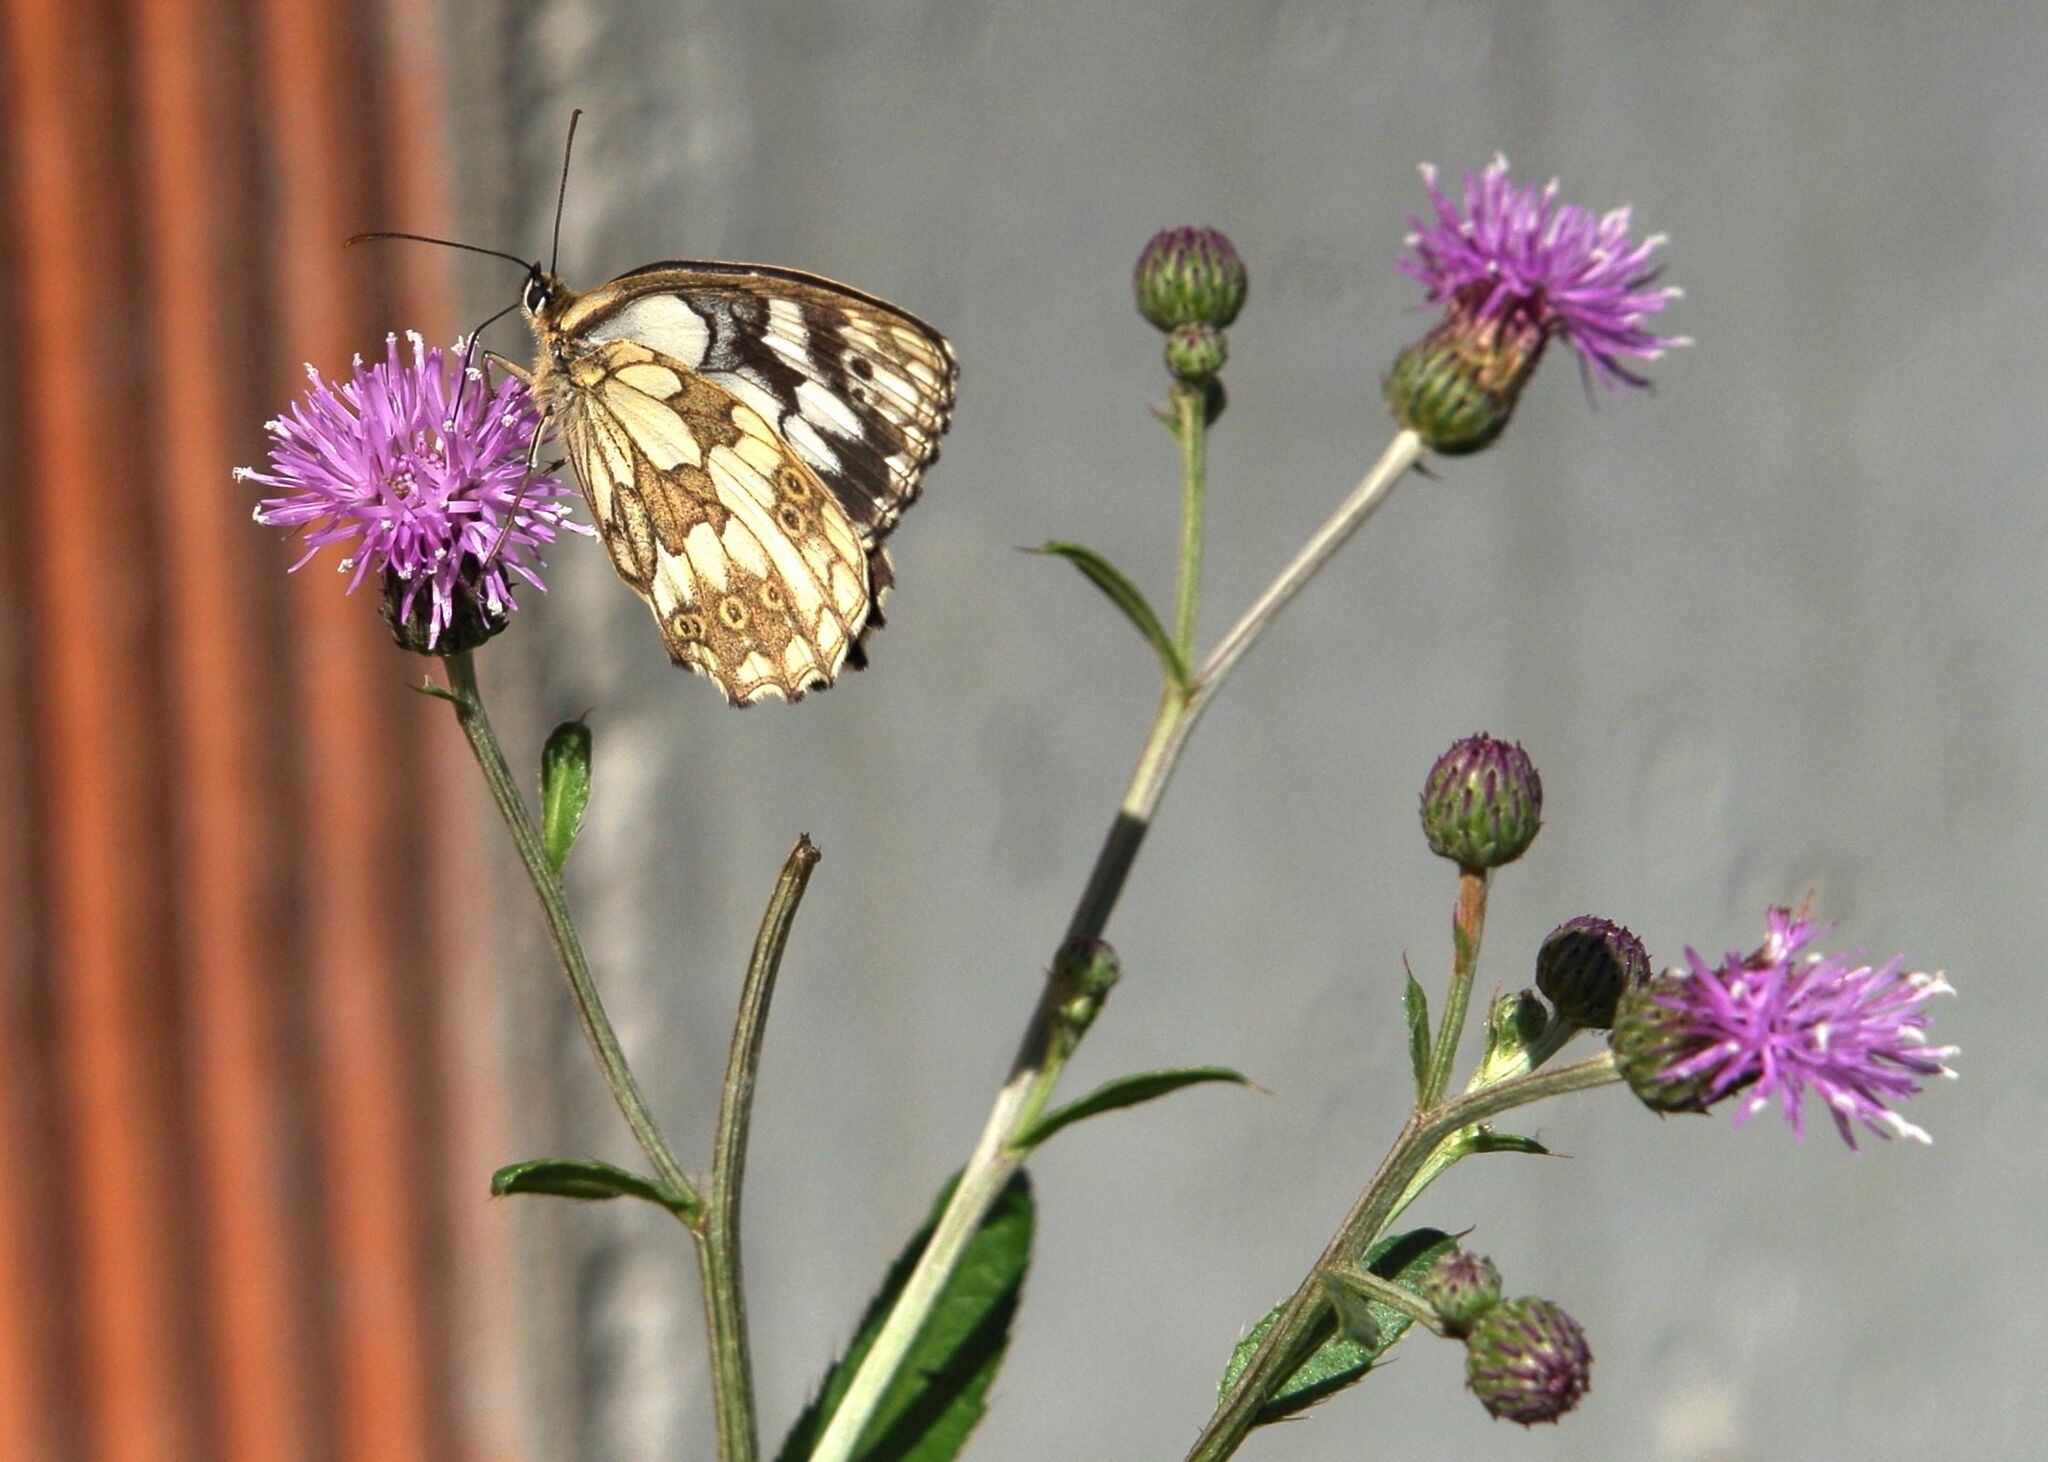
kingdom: Animalia
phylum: Arthropoda
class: Insecta
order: Lepidoptera
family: Nymphalidae
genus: Melanargia
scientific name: Melanargia galathea
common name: Marbled white
